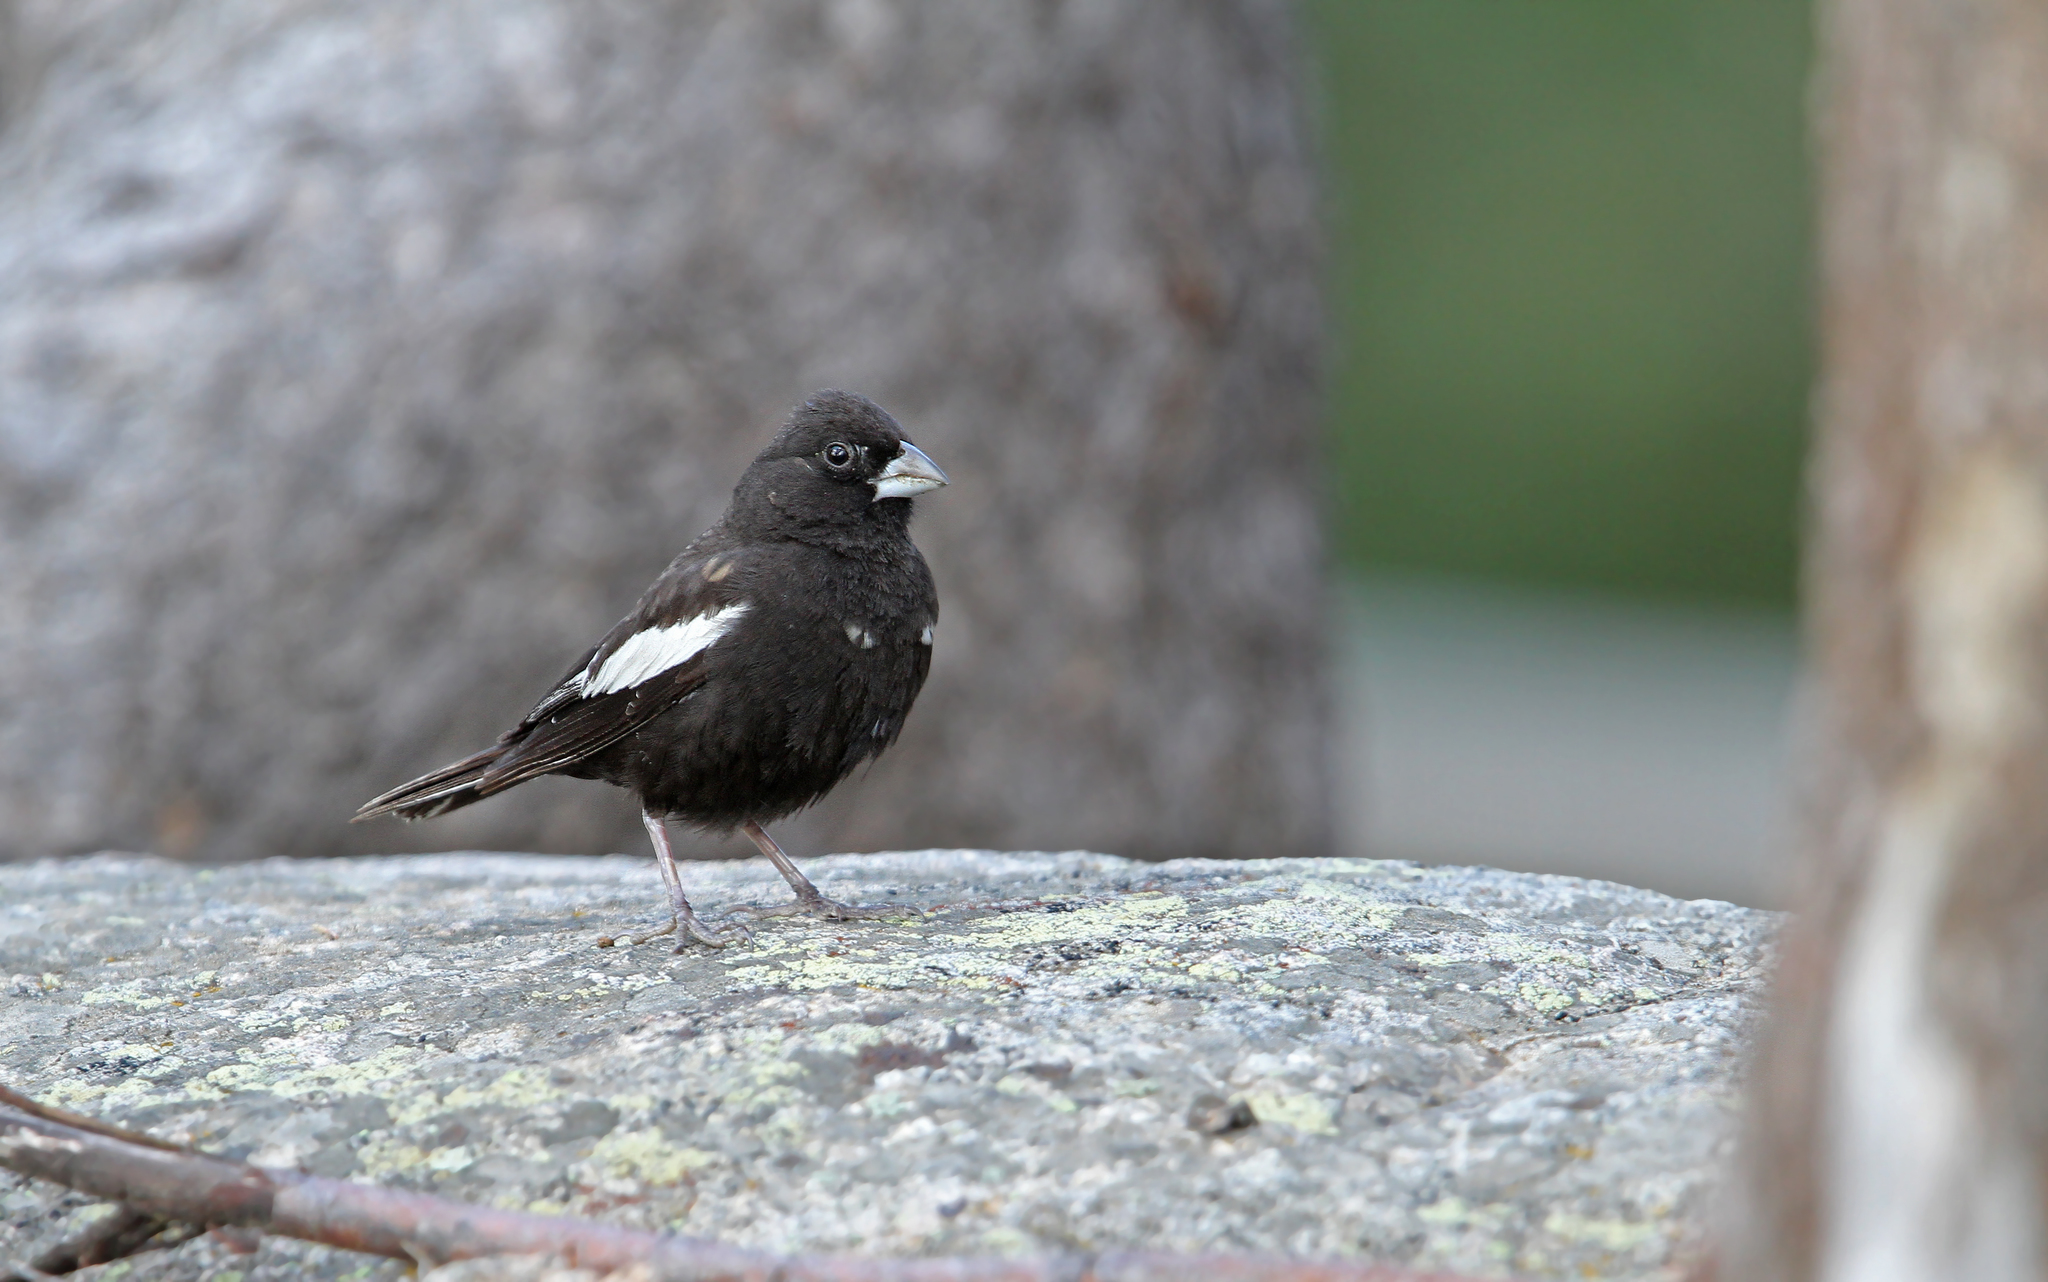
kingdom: Animalia
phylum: Chordata
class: Aves
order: Passeriformes
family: Passerellidae
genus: Calamospiza
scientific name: Calamospiza melanocorys
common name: Lark bunting
